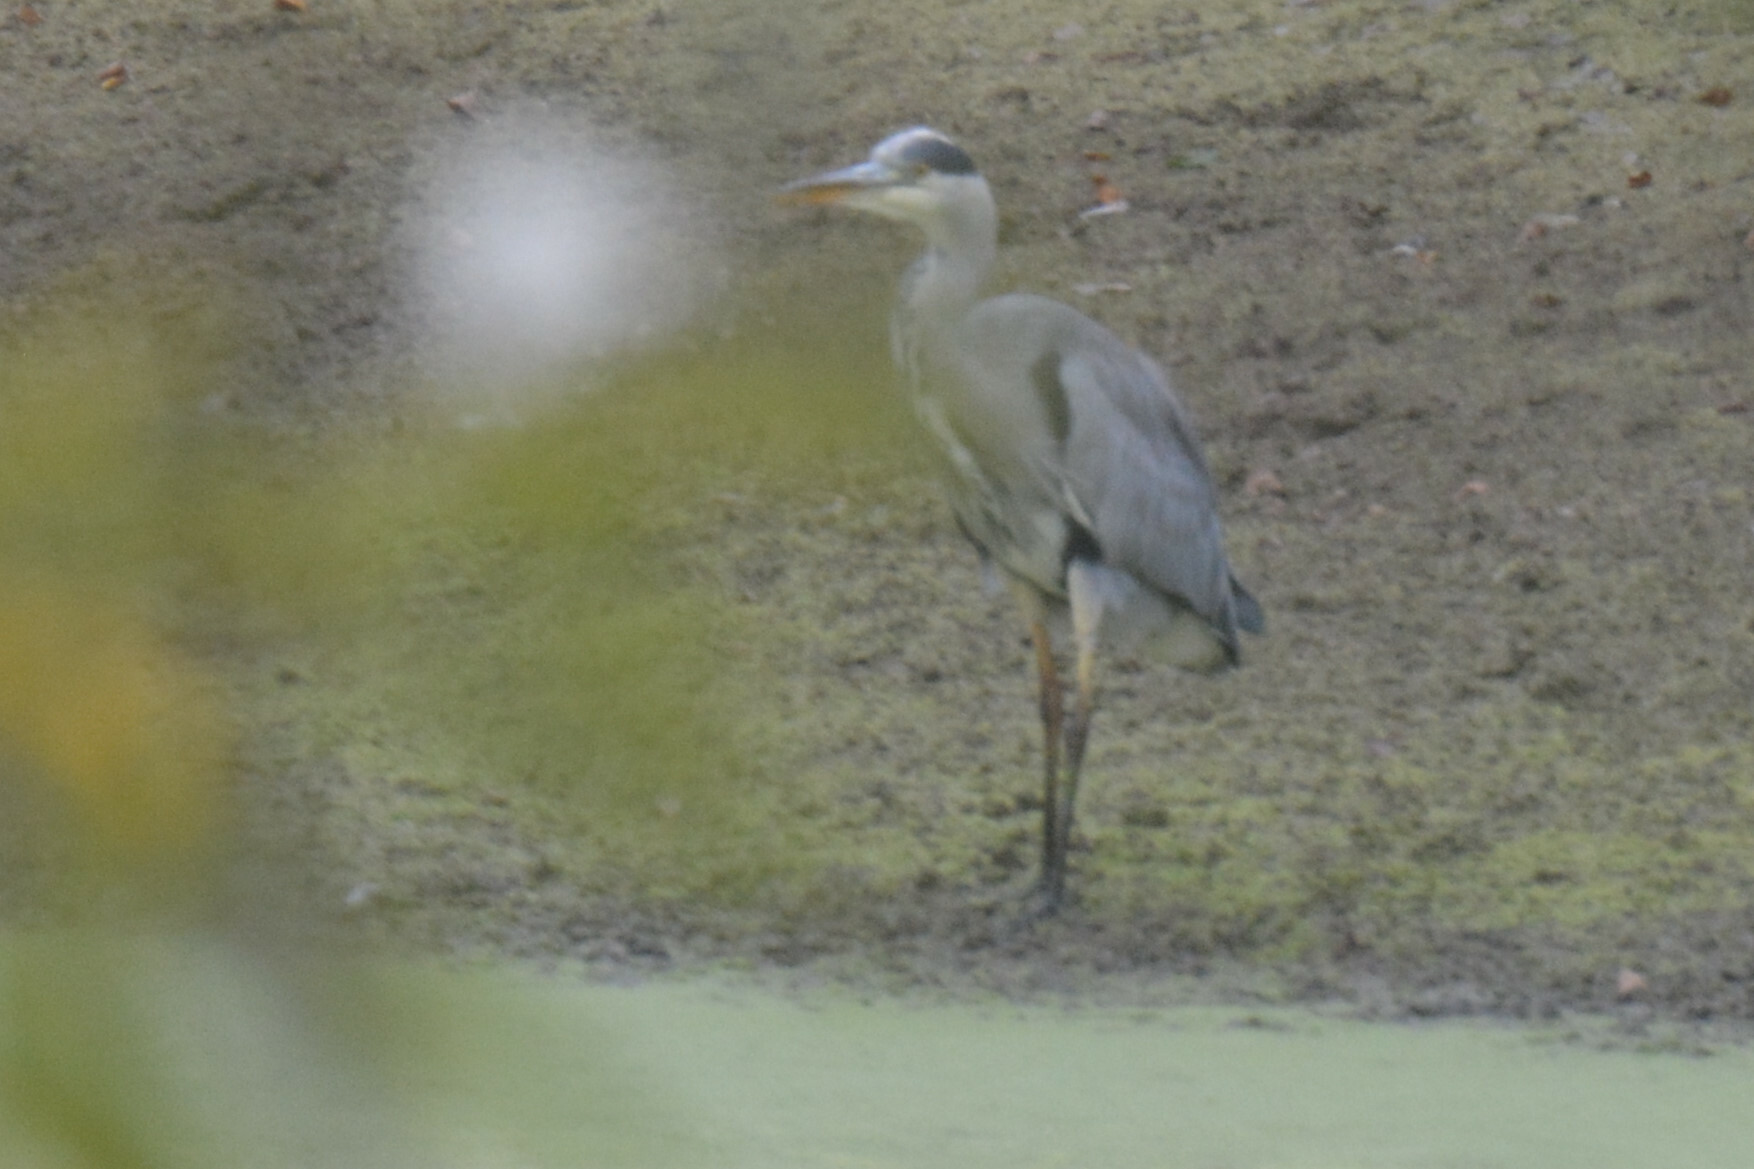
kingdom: Animalia
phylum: Chordata
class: Aves
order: Pelecaniformes
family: Ardeidae
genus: Ardea
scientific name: Ardea cinerea
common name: Grey heron
